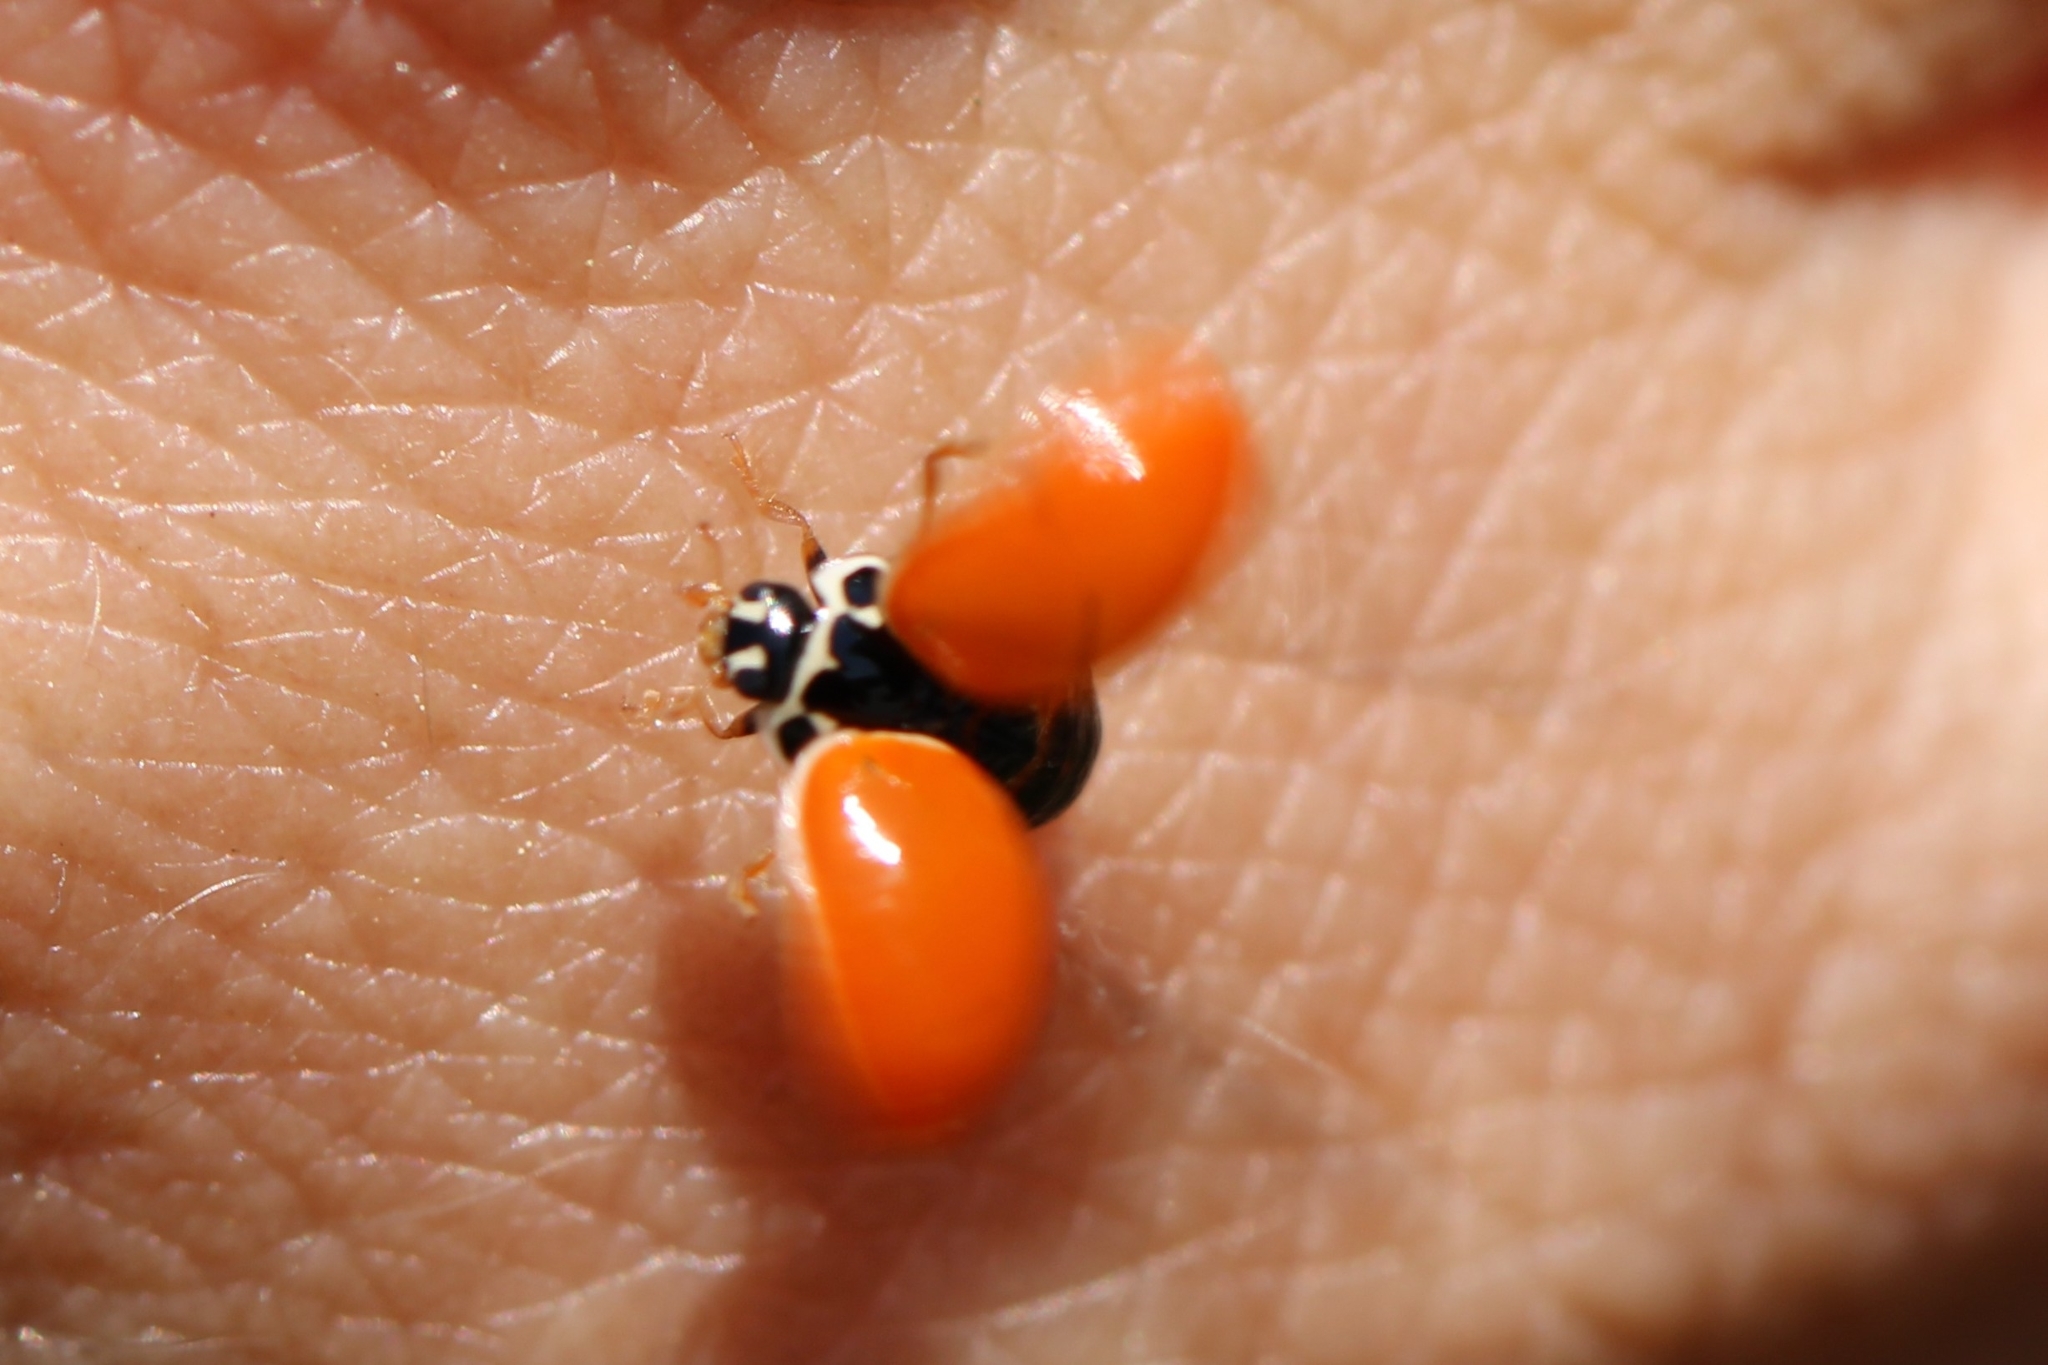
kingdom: Animalia
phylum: Arthropoda
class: Insecta
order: Coleoptera
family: Coccinellidae
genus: Cycloneda
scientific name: Cycloneda munda
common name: Polished lady beetle
